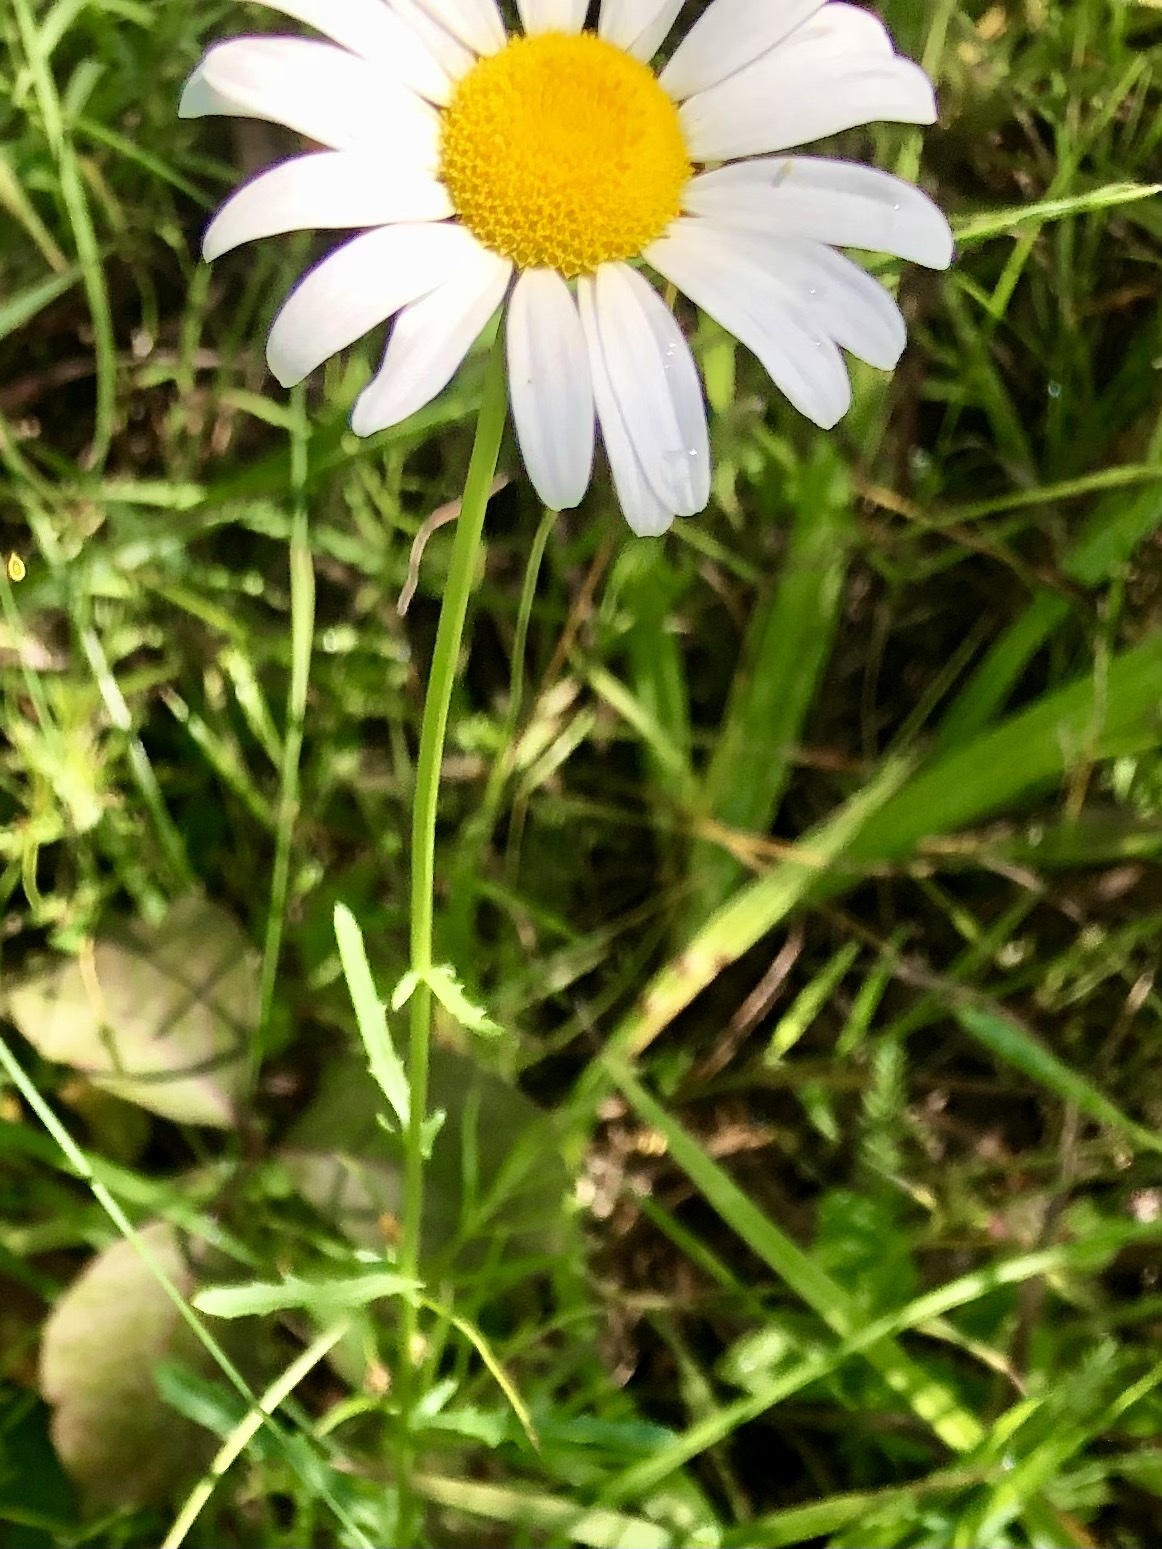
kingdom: Plantae
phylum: Tracheophyta
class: Magnoliopsida
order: Asterales
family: Asteraceae
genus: Leucanthemum
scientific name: Leucanthemum vulgare
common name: Oxeye daisy
